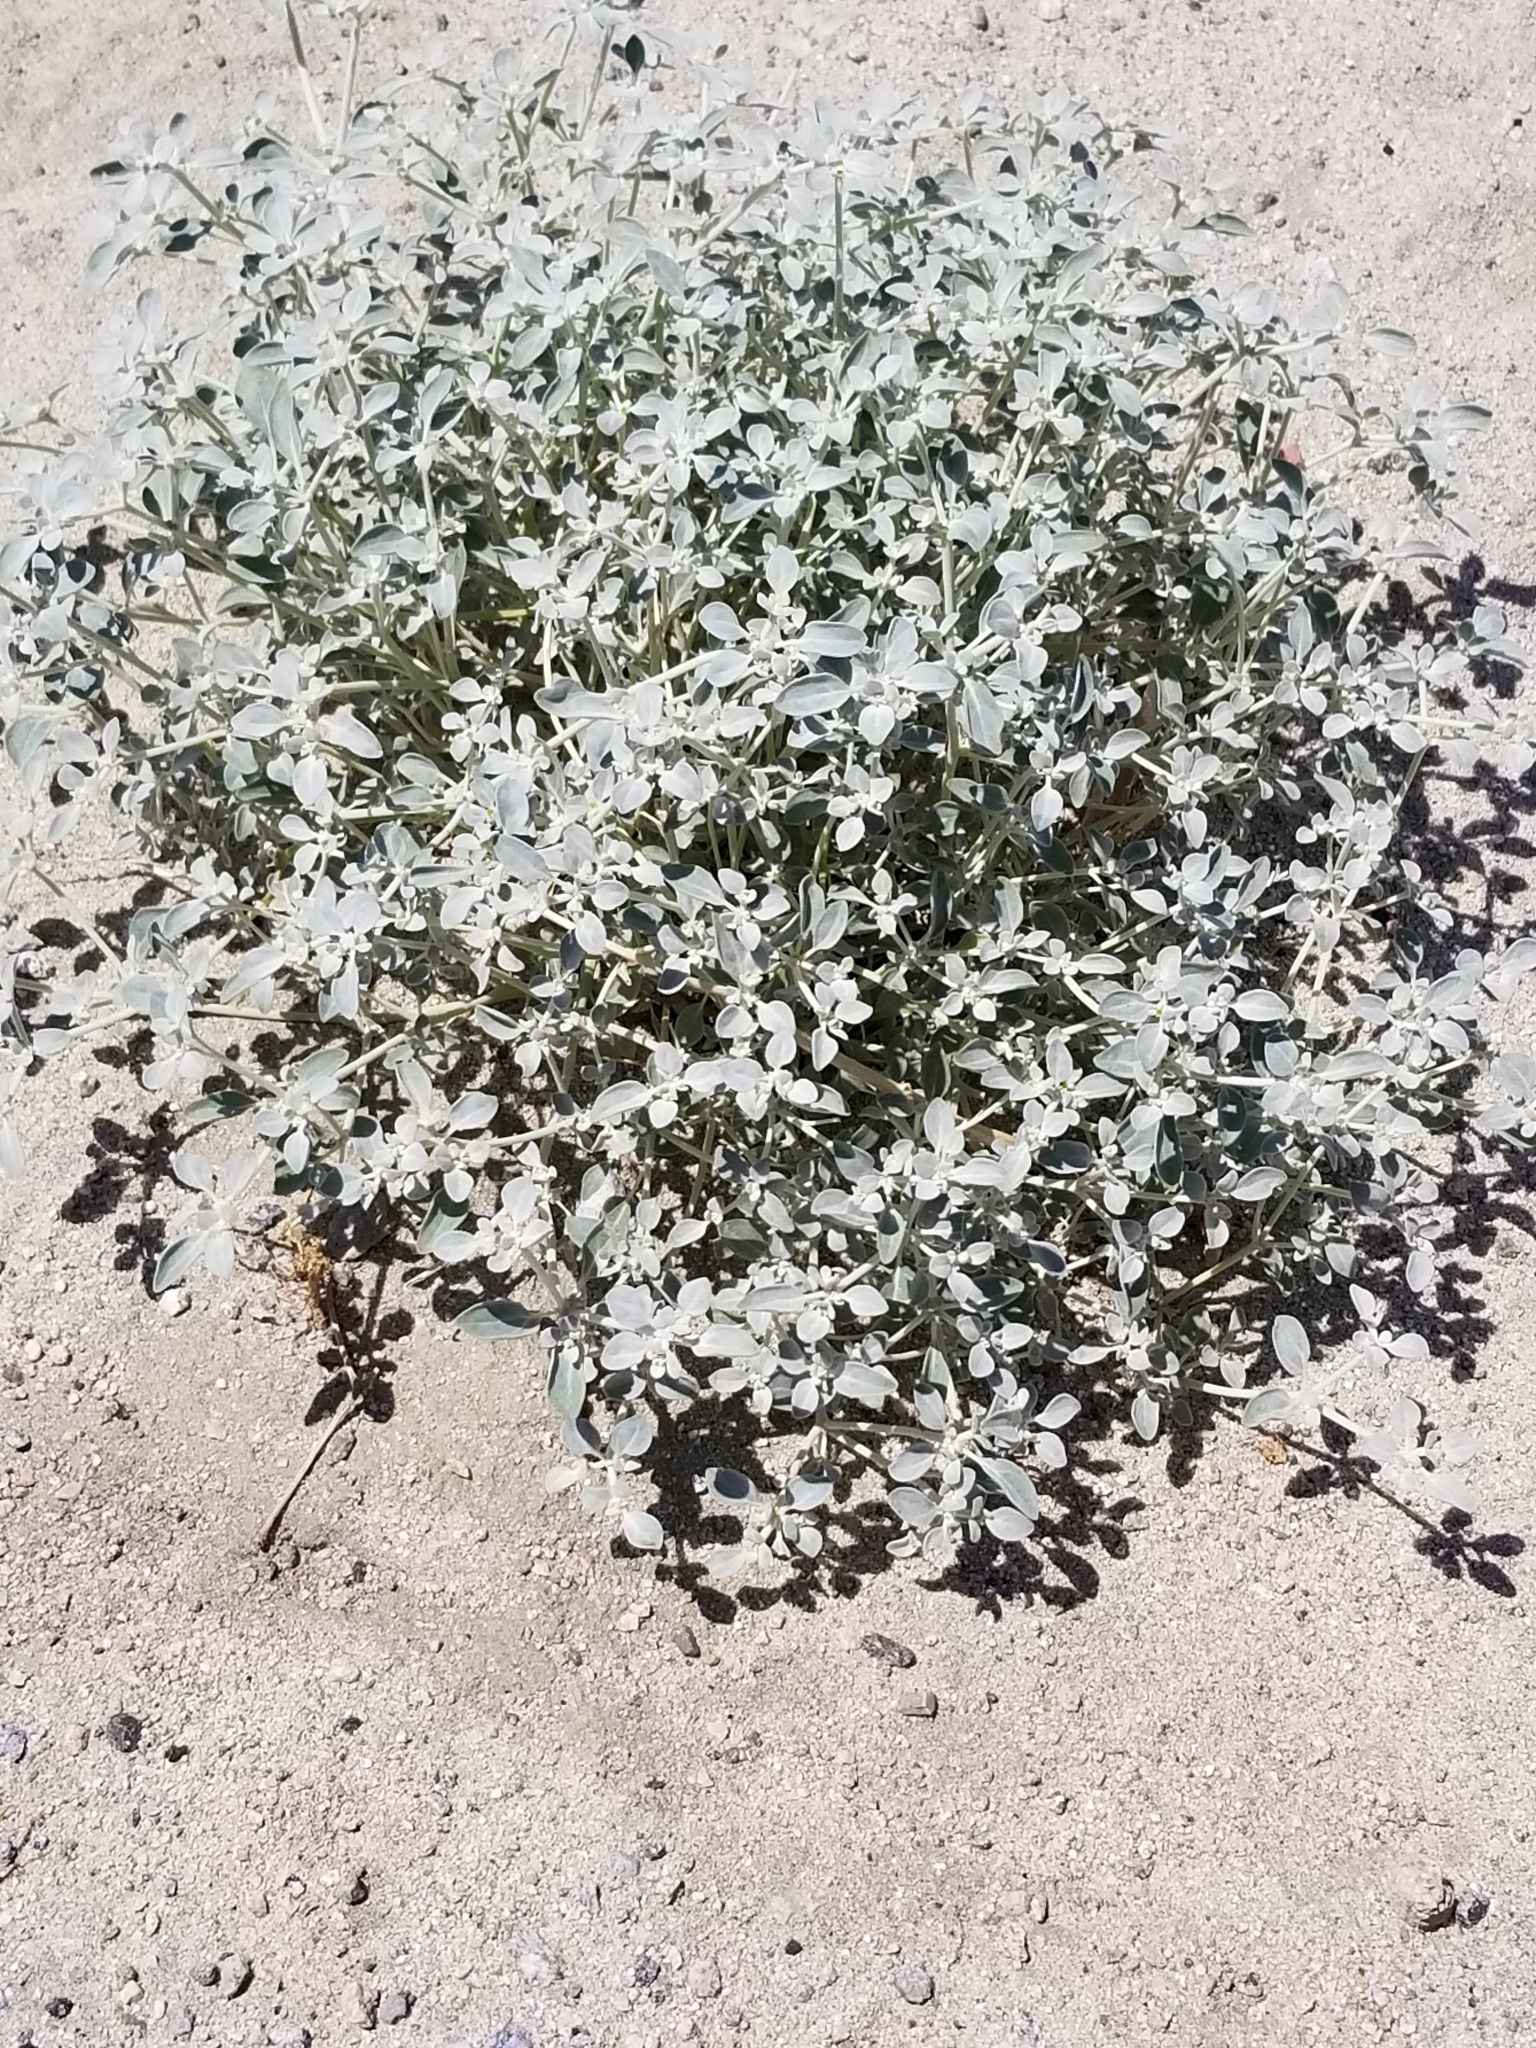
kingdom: Plantae
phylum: Tracheophyta
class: Magnoliopsida
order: Caryophyllales
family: Amaranthaceae
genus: Tidestromia
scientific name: Tidestromia suffruticosa
